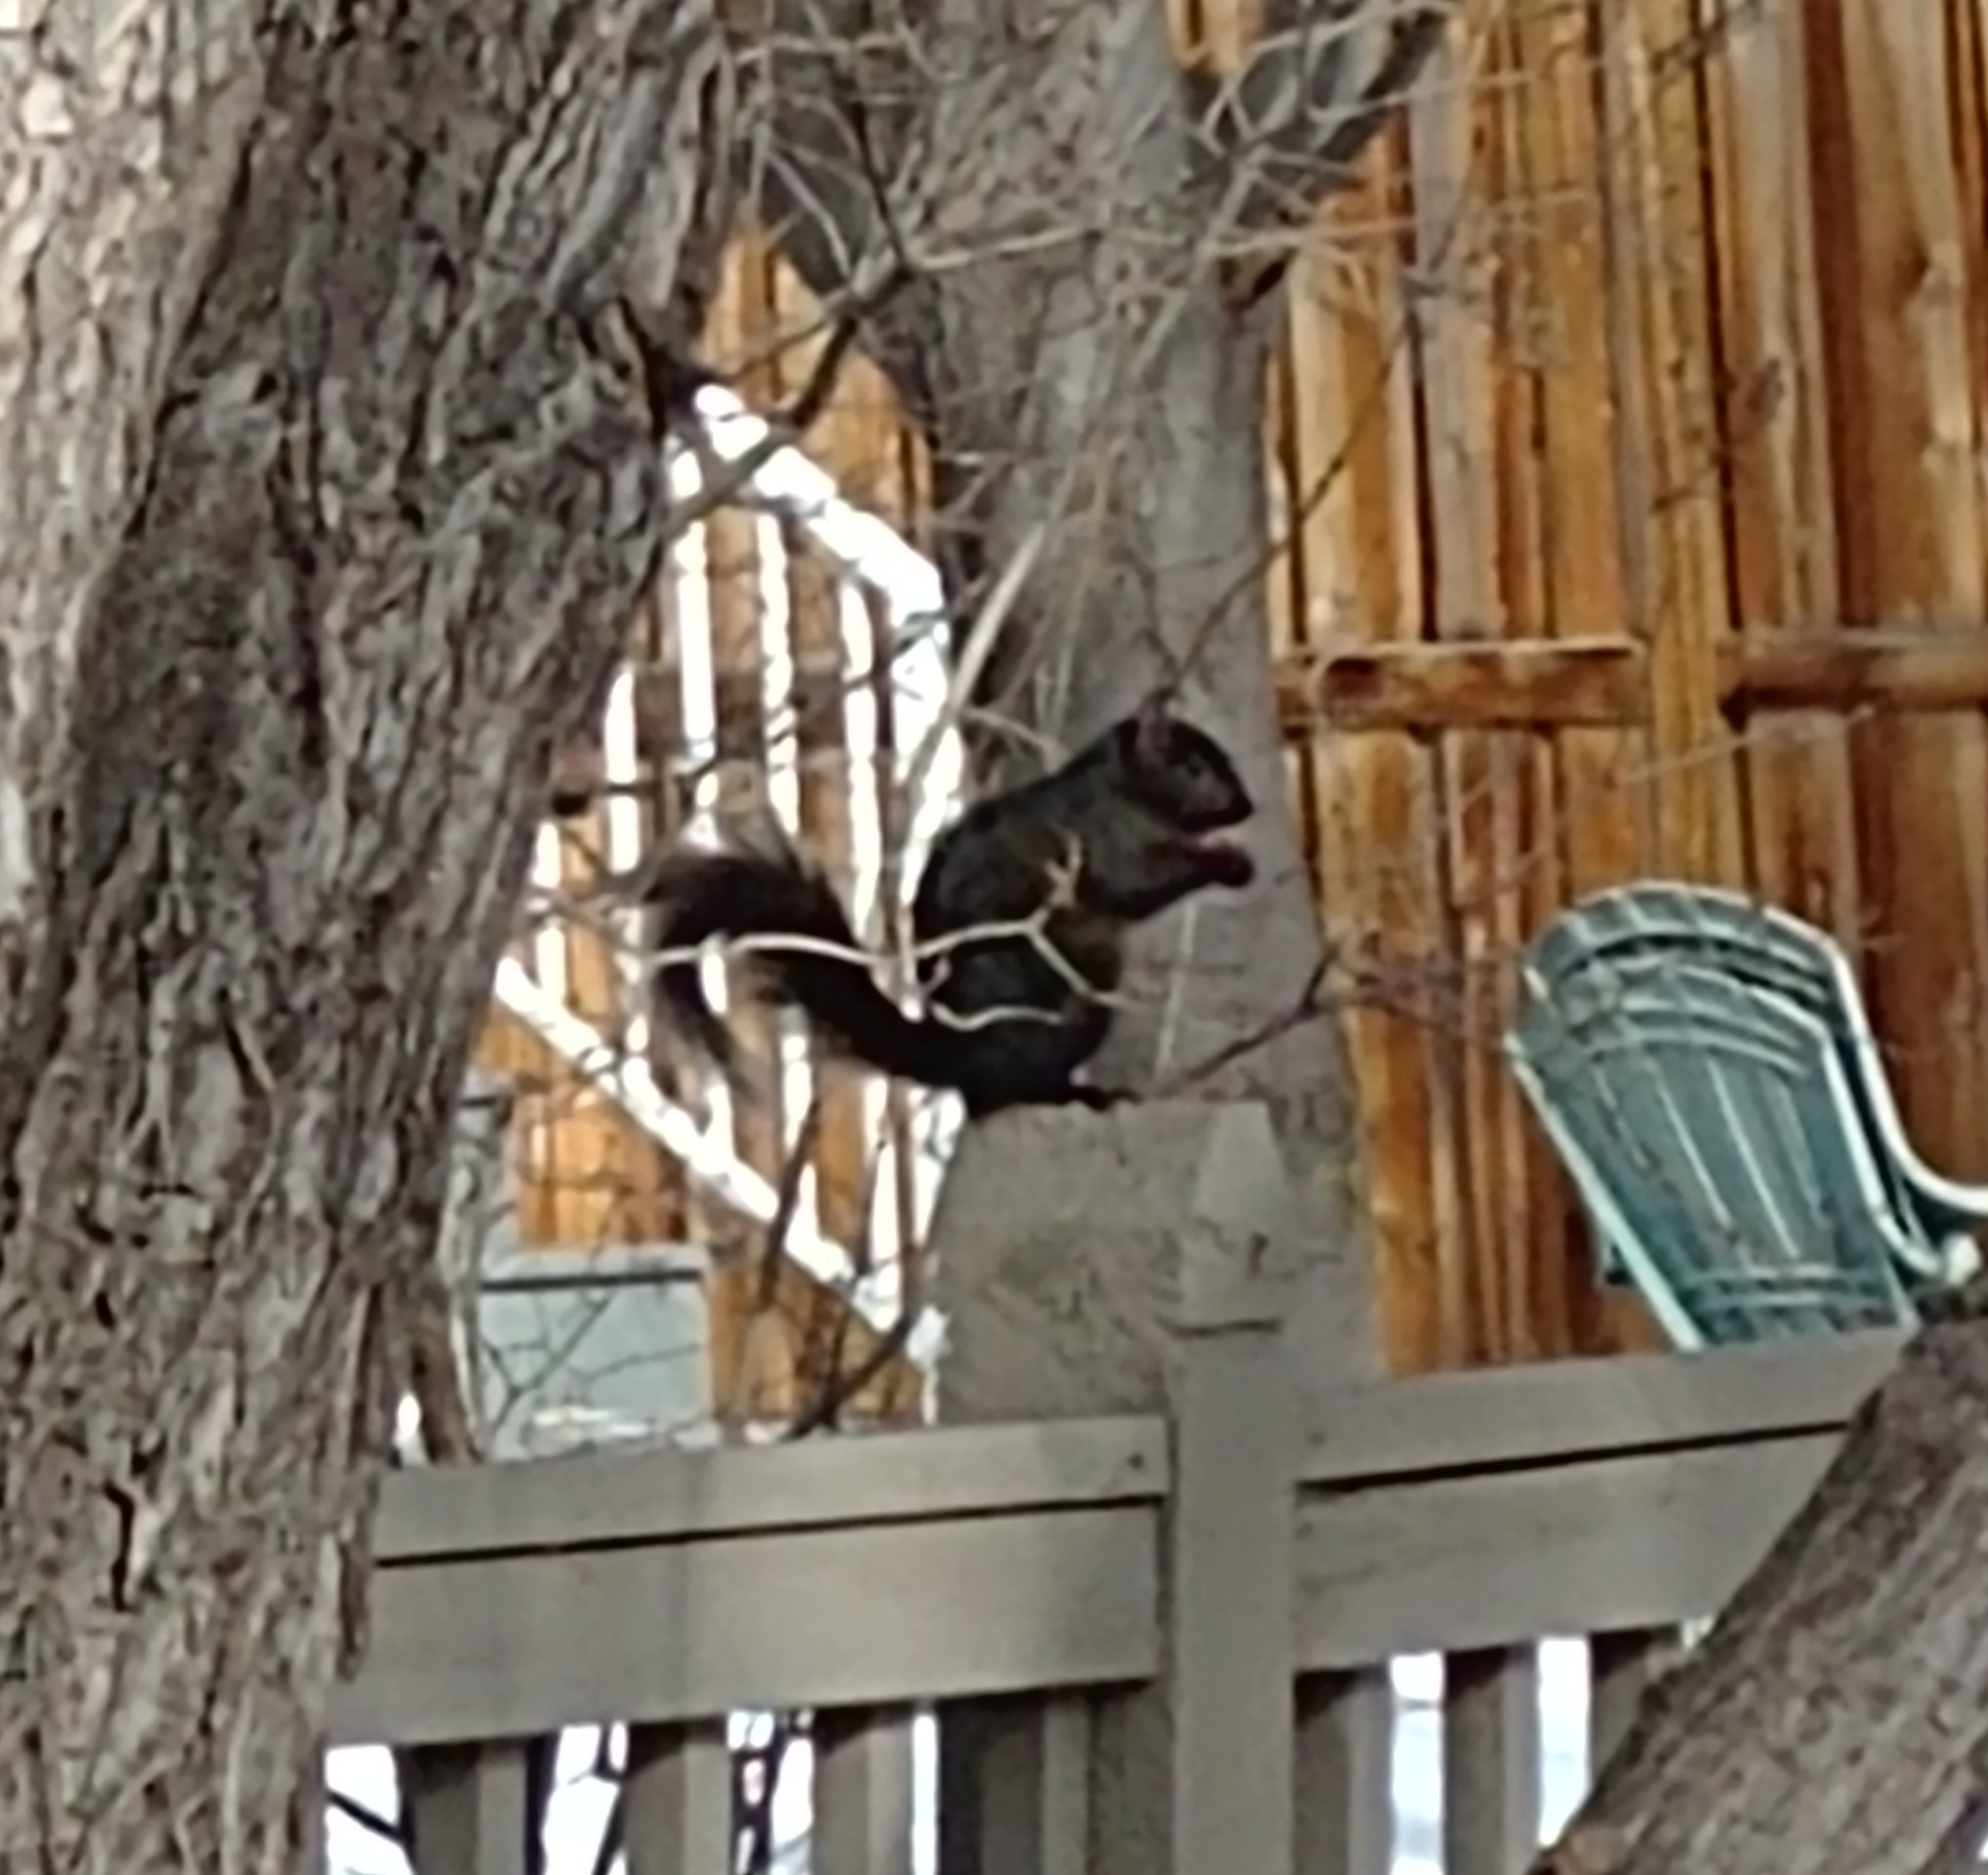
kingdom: Animalia
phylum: Chordata
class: Mammalia
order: Rodentia
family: Sciuridae
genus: Sciurus
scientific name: Sciurus carolinensis
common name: Eastern gray squirrel
